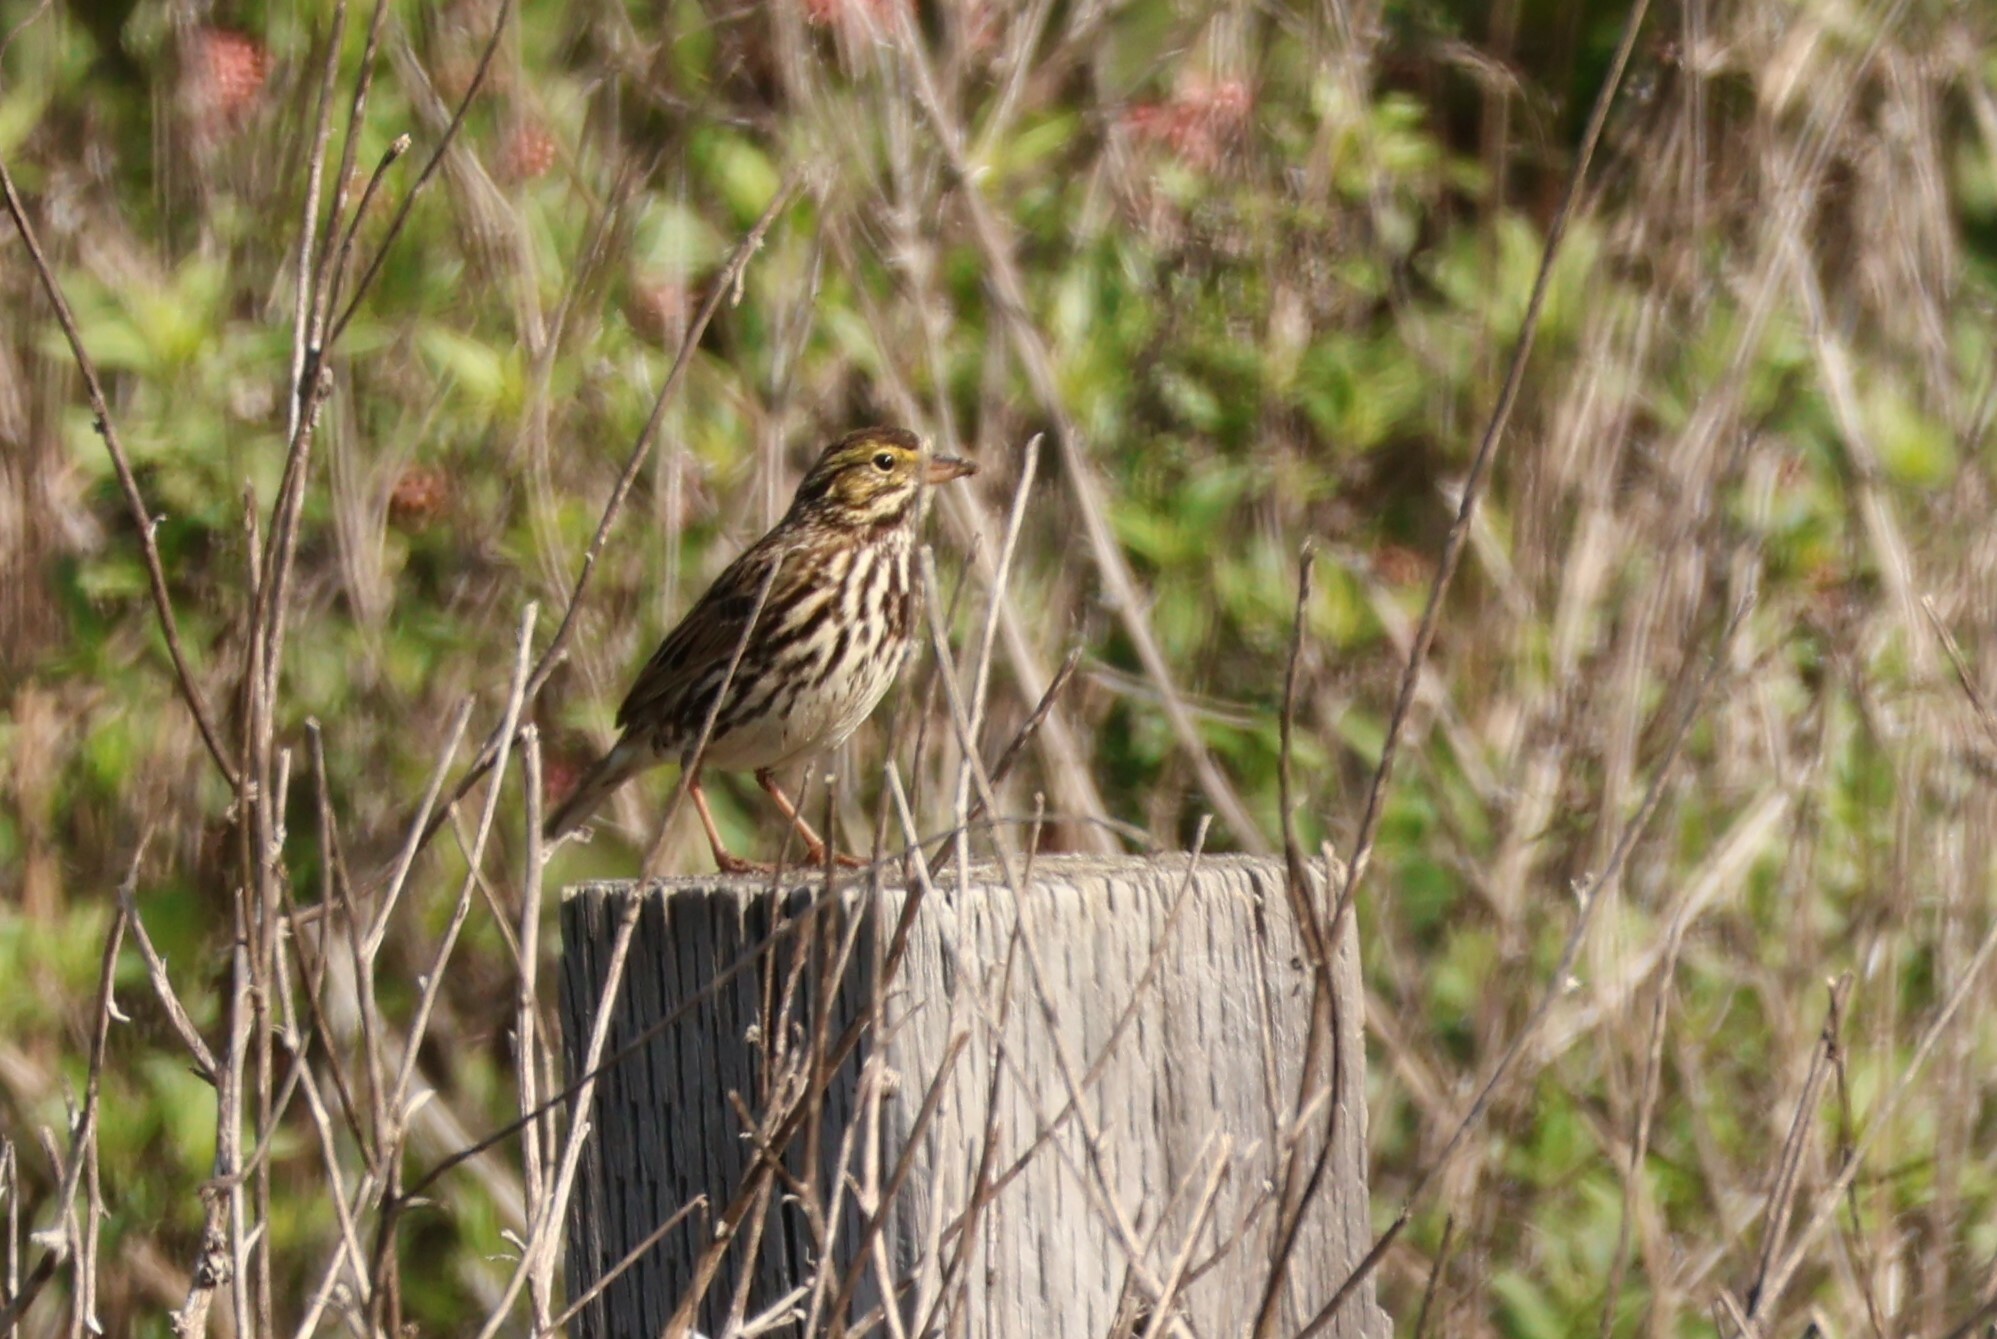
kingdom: Animalia
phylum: Chordata
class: Aves
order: Passeriformes
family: Passerellidae
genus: Passerculus
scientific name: Passerculus sandwichensis
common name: Savannah sparrow
